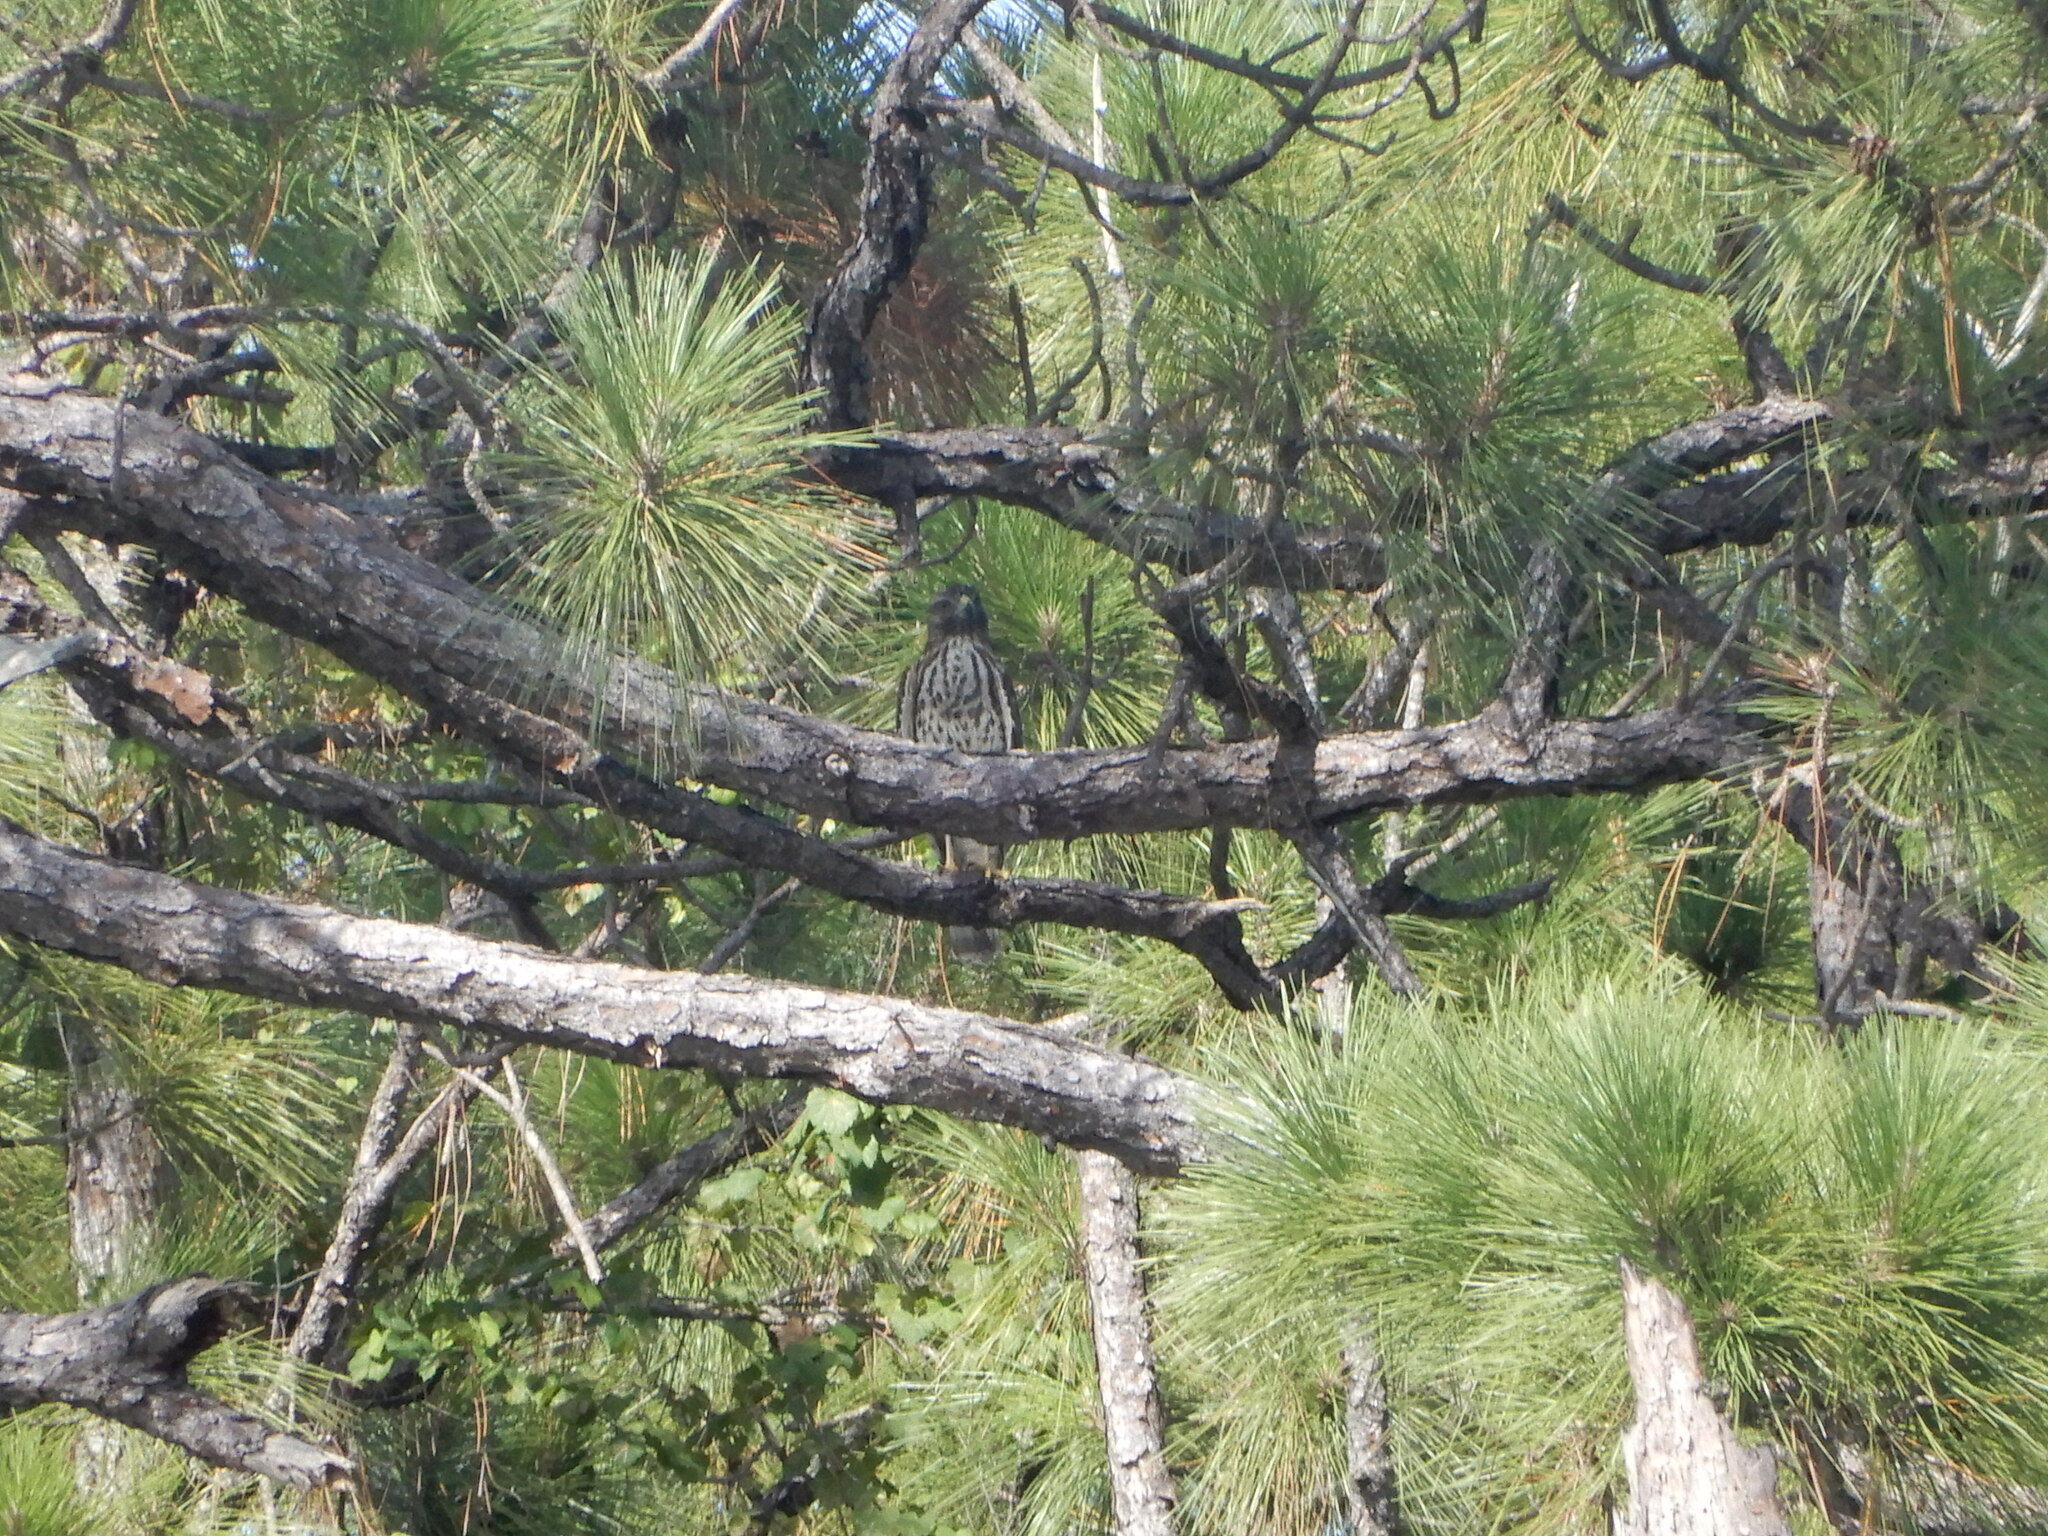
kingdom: Animalia
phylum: Chordata
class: Aves
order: Accipitriformes
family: Accipitridae
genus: Buteo
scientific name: Buteo lineatus
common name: Red-shouldered hawk
